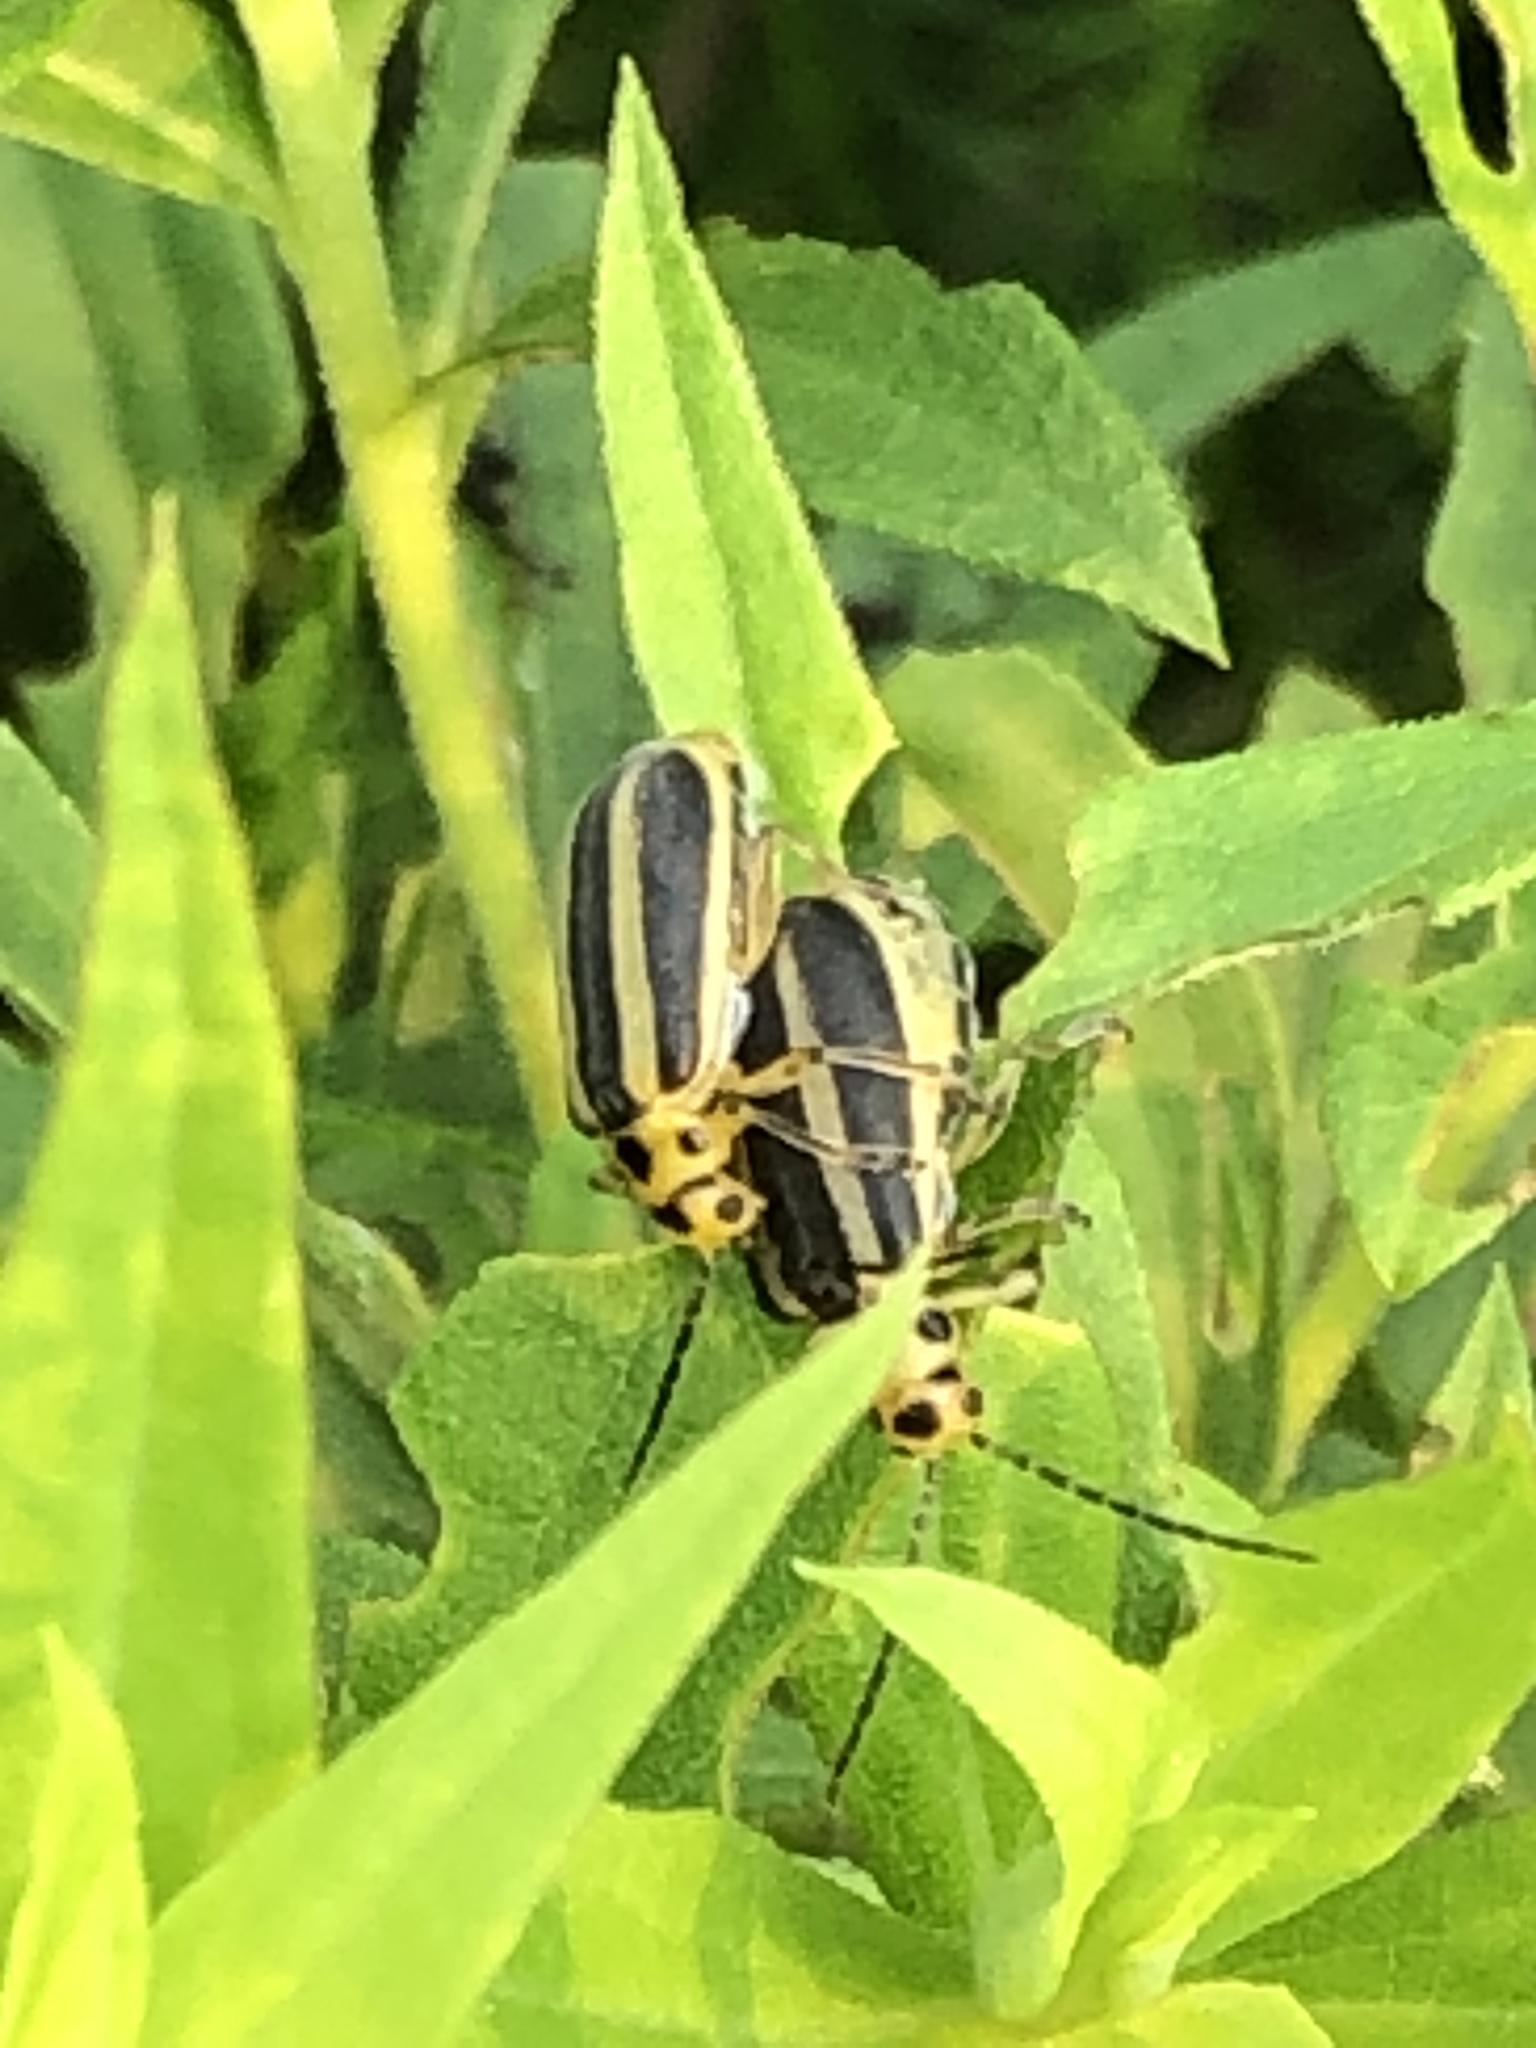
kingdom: Animalia
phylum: Arthropoda
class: Insecta
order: Coleoptera
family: Chrysomelidae
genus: Trirhabda
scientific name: Trirhabda canadensis
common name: Goldenrod leaf beetle
